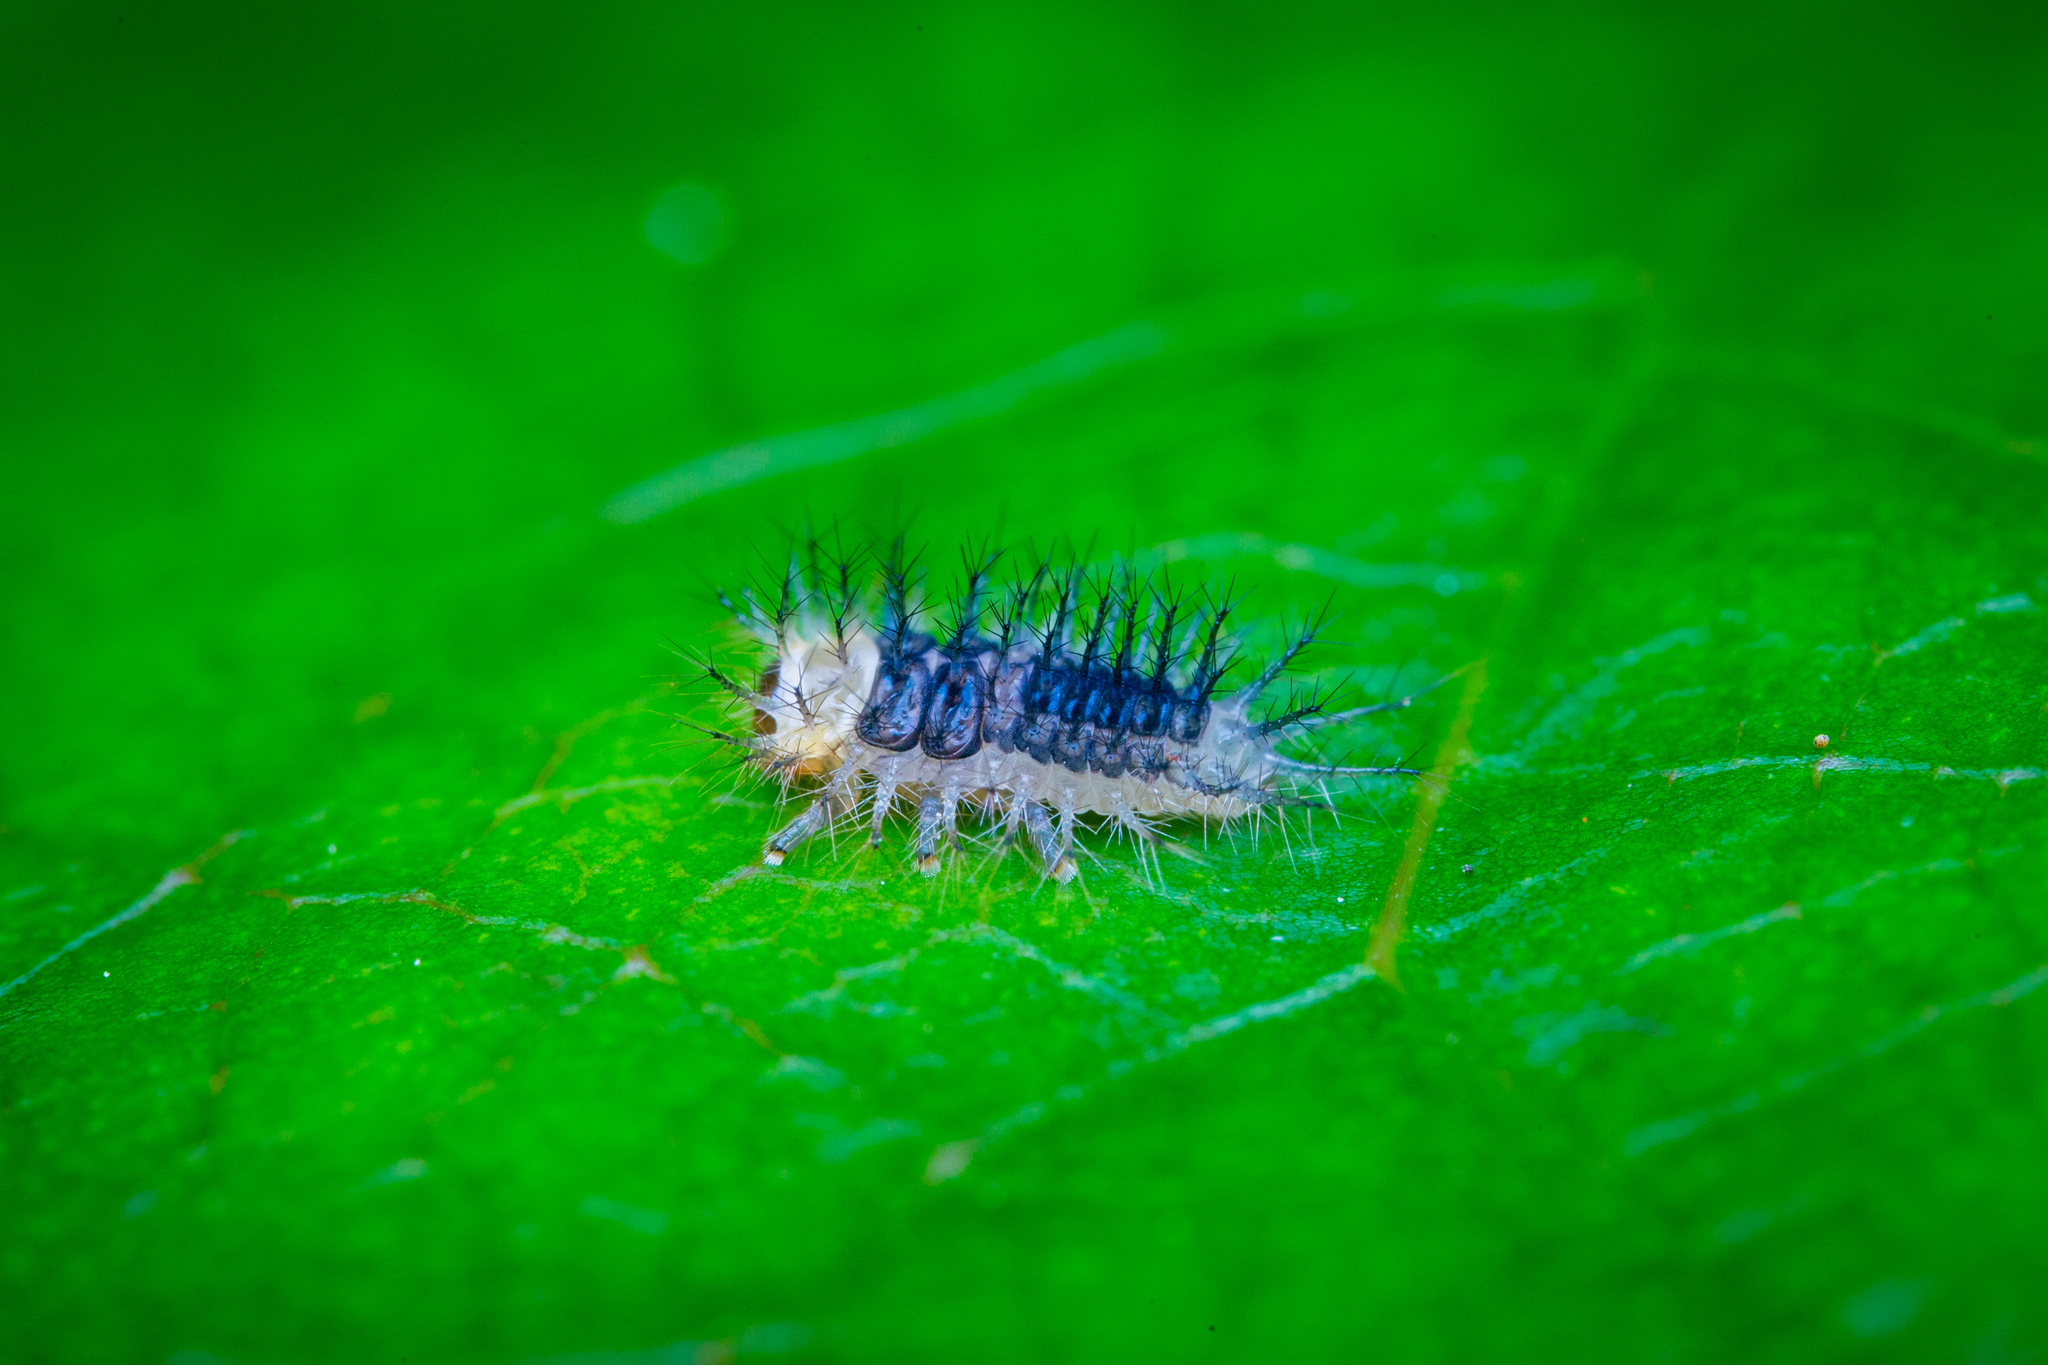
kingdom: Animalia
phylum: Arthropoda
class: Insecta
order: Coleoptera
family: Coccinellidae
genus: Halmus
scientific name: Halmus chalybeus
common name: Steel blue ladybird beetle
